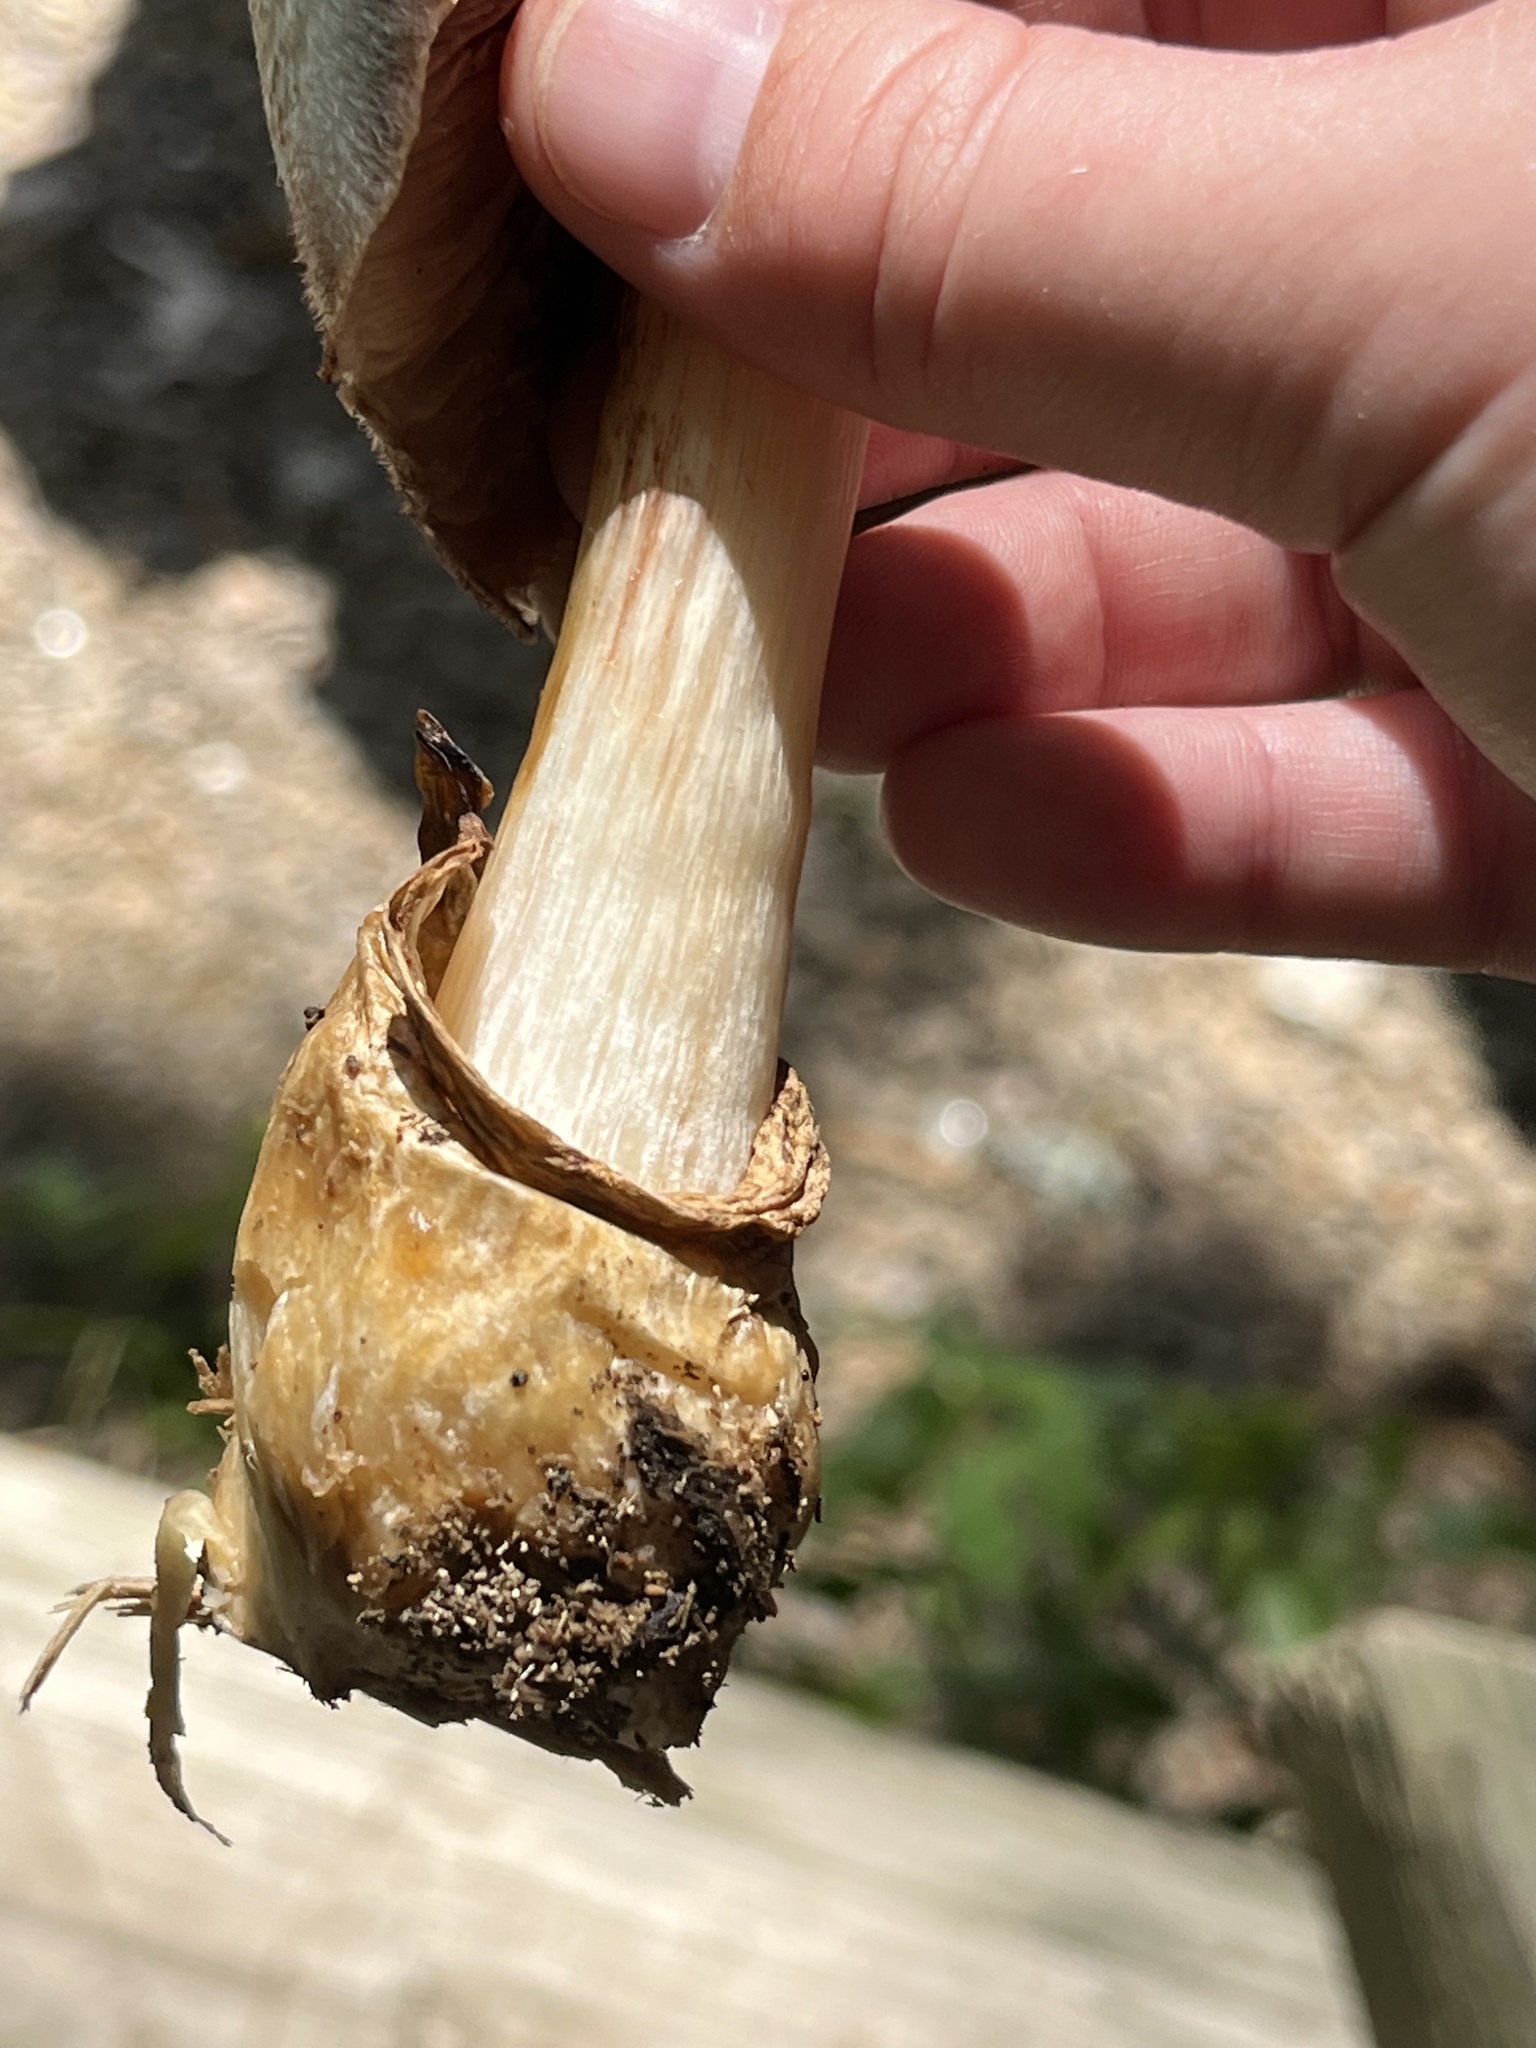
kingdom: Fungi
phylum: Basidiomycota
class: Agaricomycetes
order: Agaricales
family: Pluteaceae
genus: Volvariella
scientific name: Volvariella bombycina
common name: Silky rosegill
